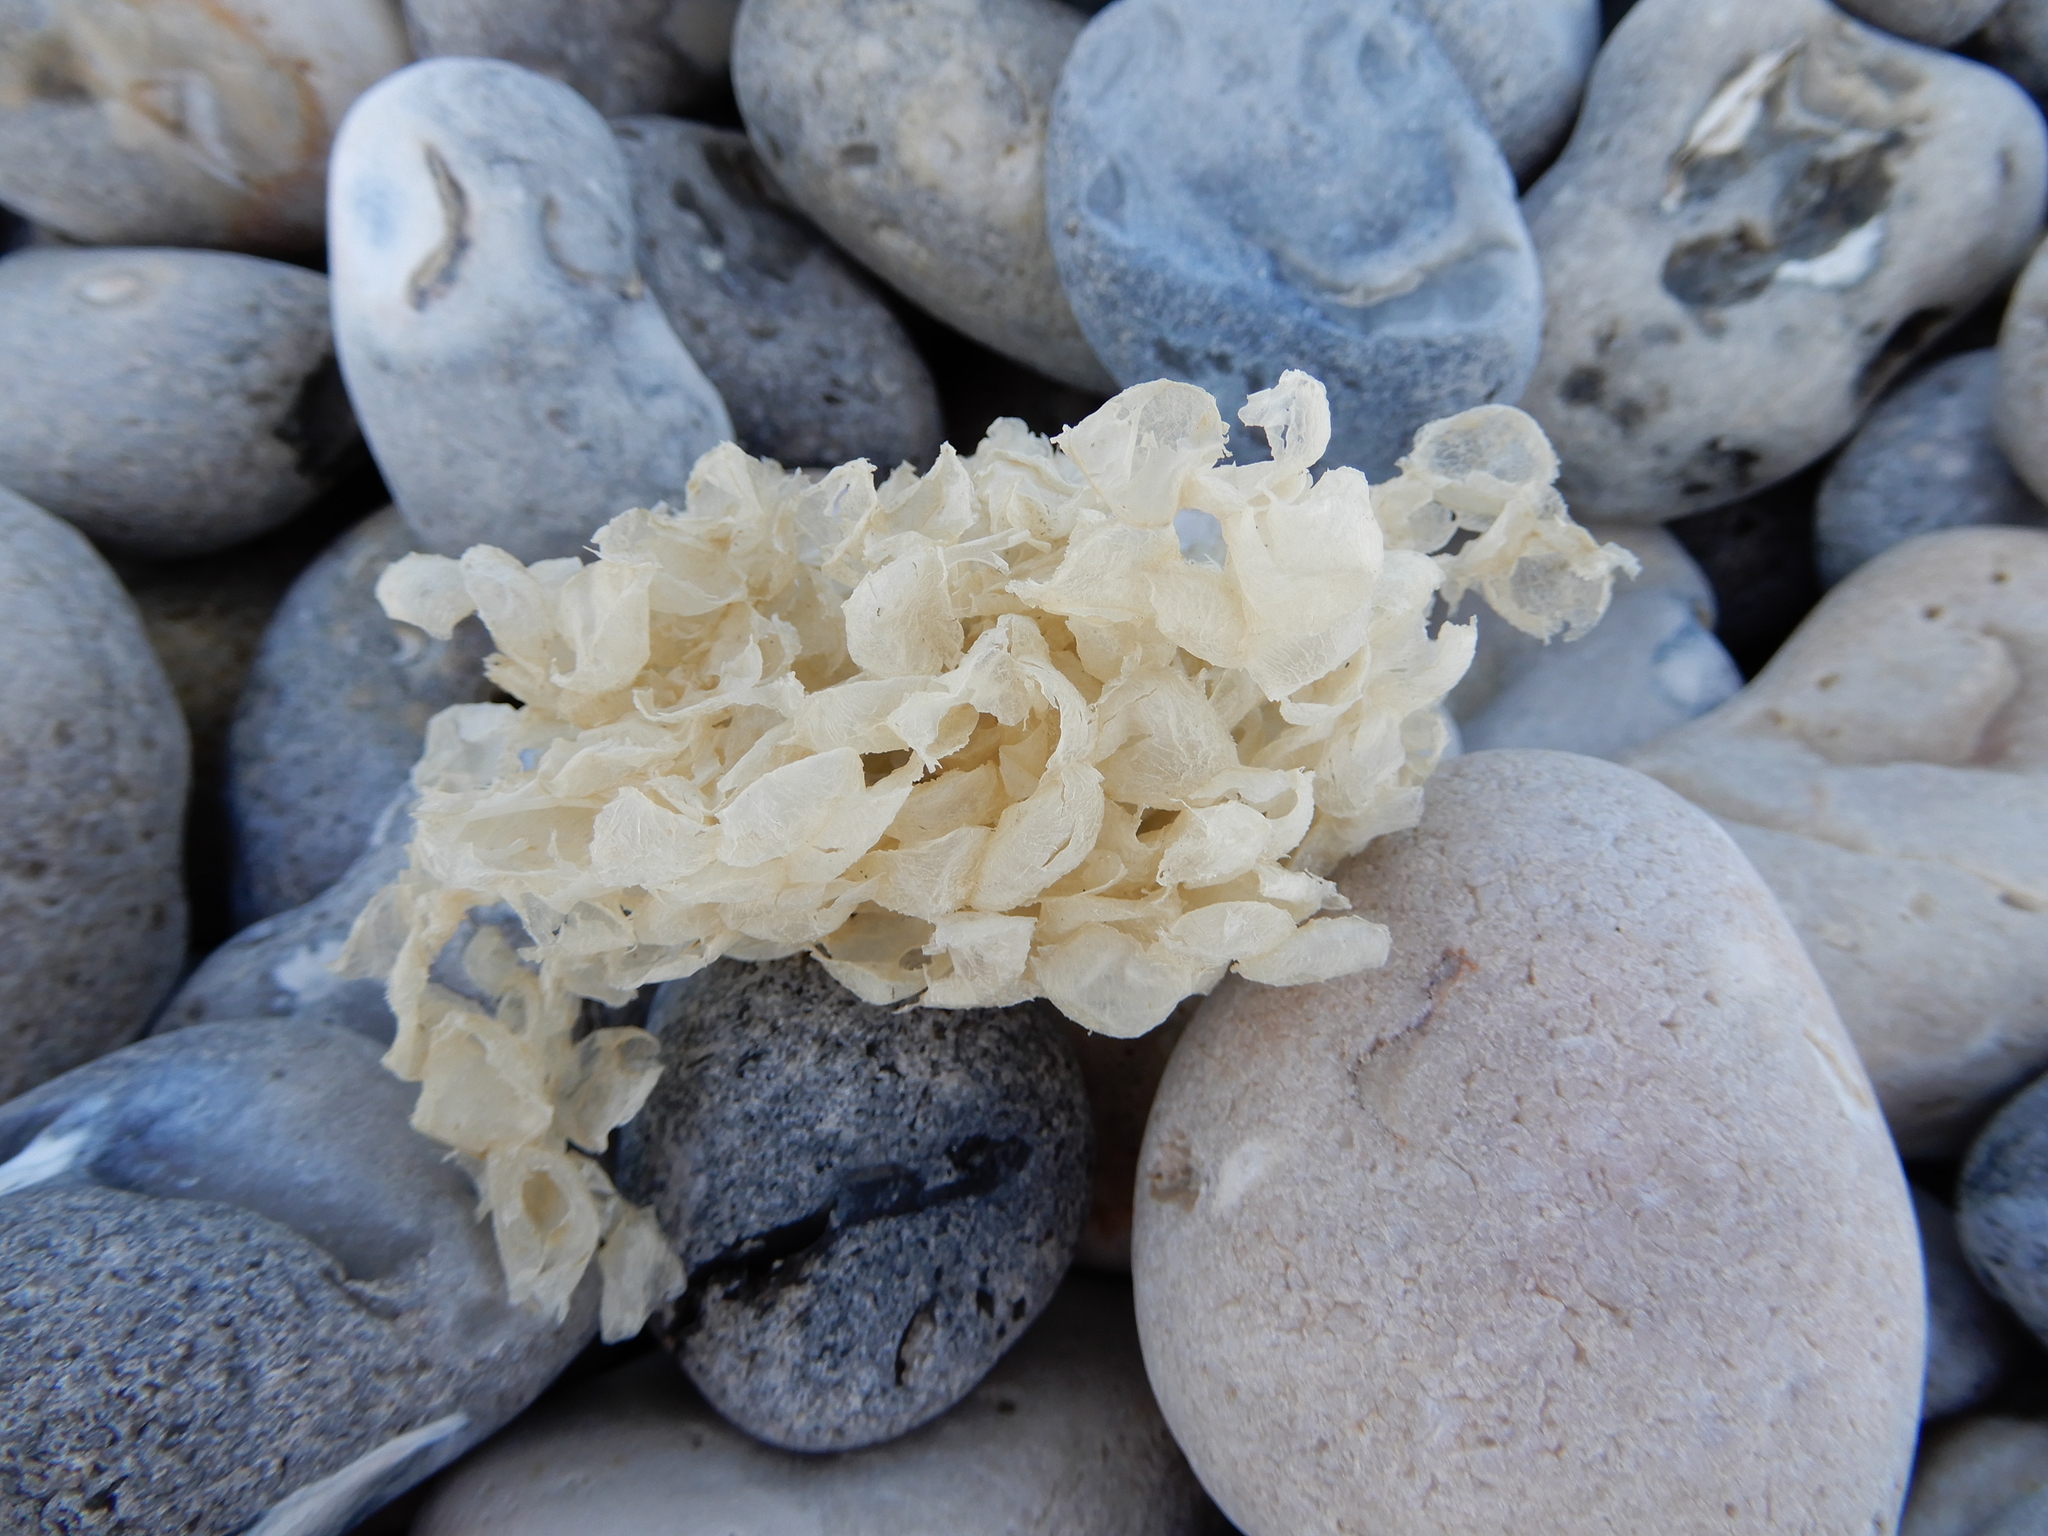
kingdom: Animalia
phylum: Mollusca
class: Gastropoda
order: Neogastropoda
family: Buccinidae
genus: Buccinum
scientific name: Buccinum undatum
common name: Common whelk
